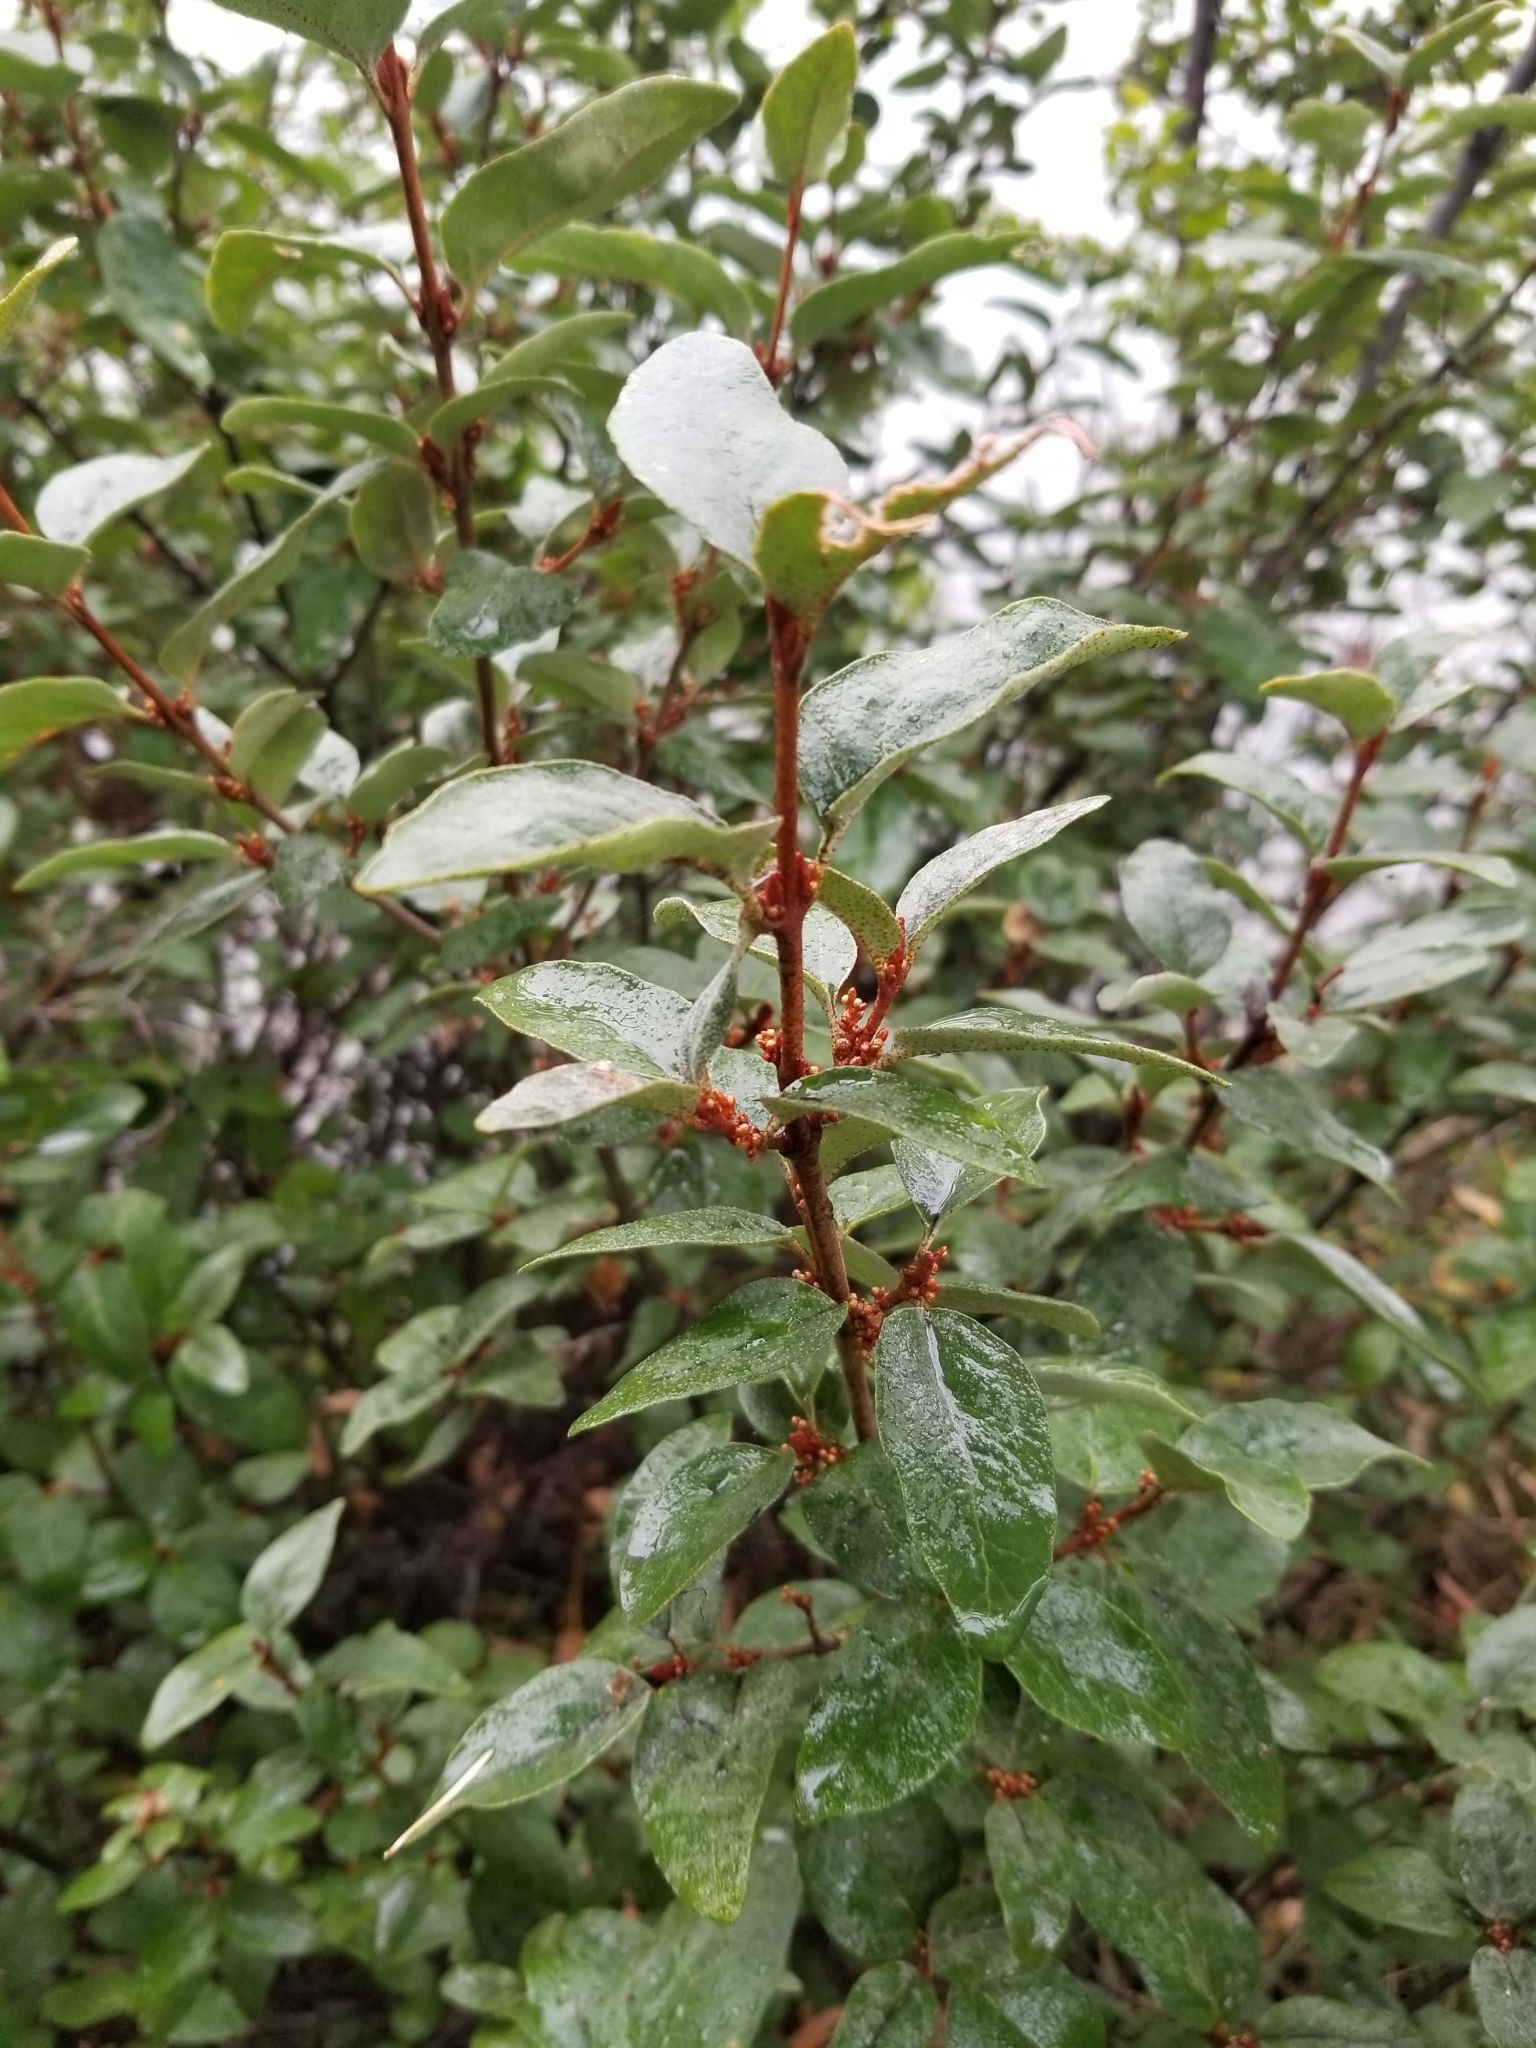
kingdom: Plantae
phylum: Tracheophyta
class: Magnoliopsida
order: Rosales
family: Elaeagnaceae
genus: Shepherdia
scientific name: Shepherdia canadensis
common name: Soapberry
